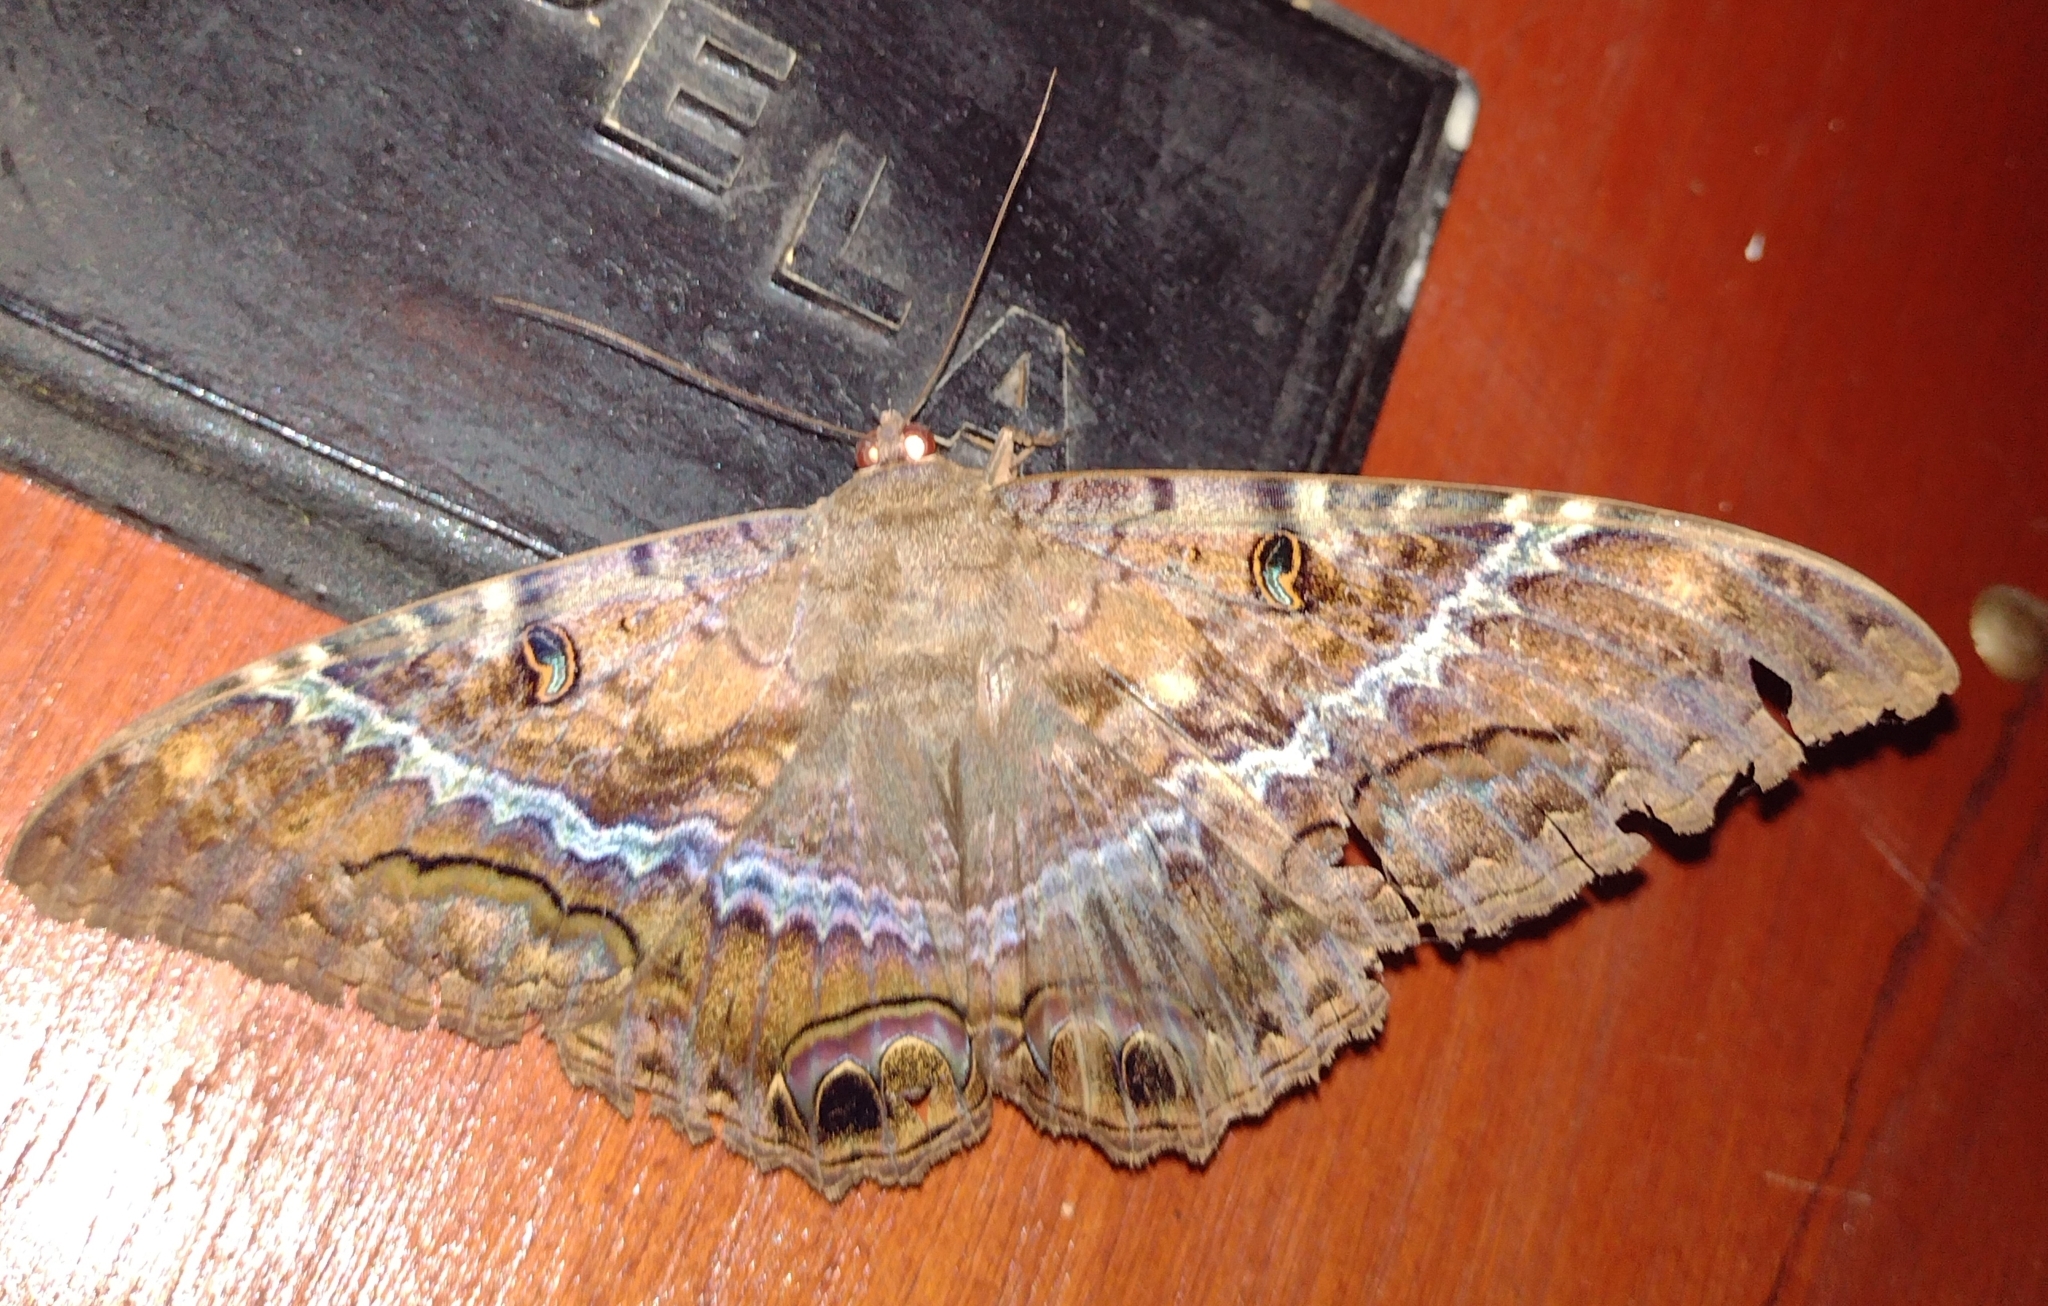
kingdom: Animalia
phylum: Arthropoda
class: Insecta
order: Lepidoptera
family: Erebidae
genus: Ascalapha
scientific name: Ascalapha odorata
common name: Black witch
